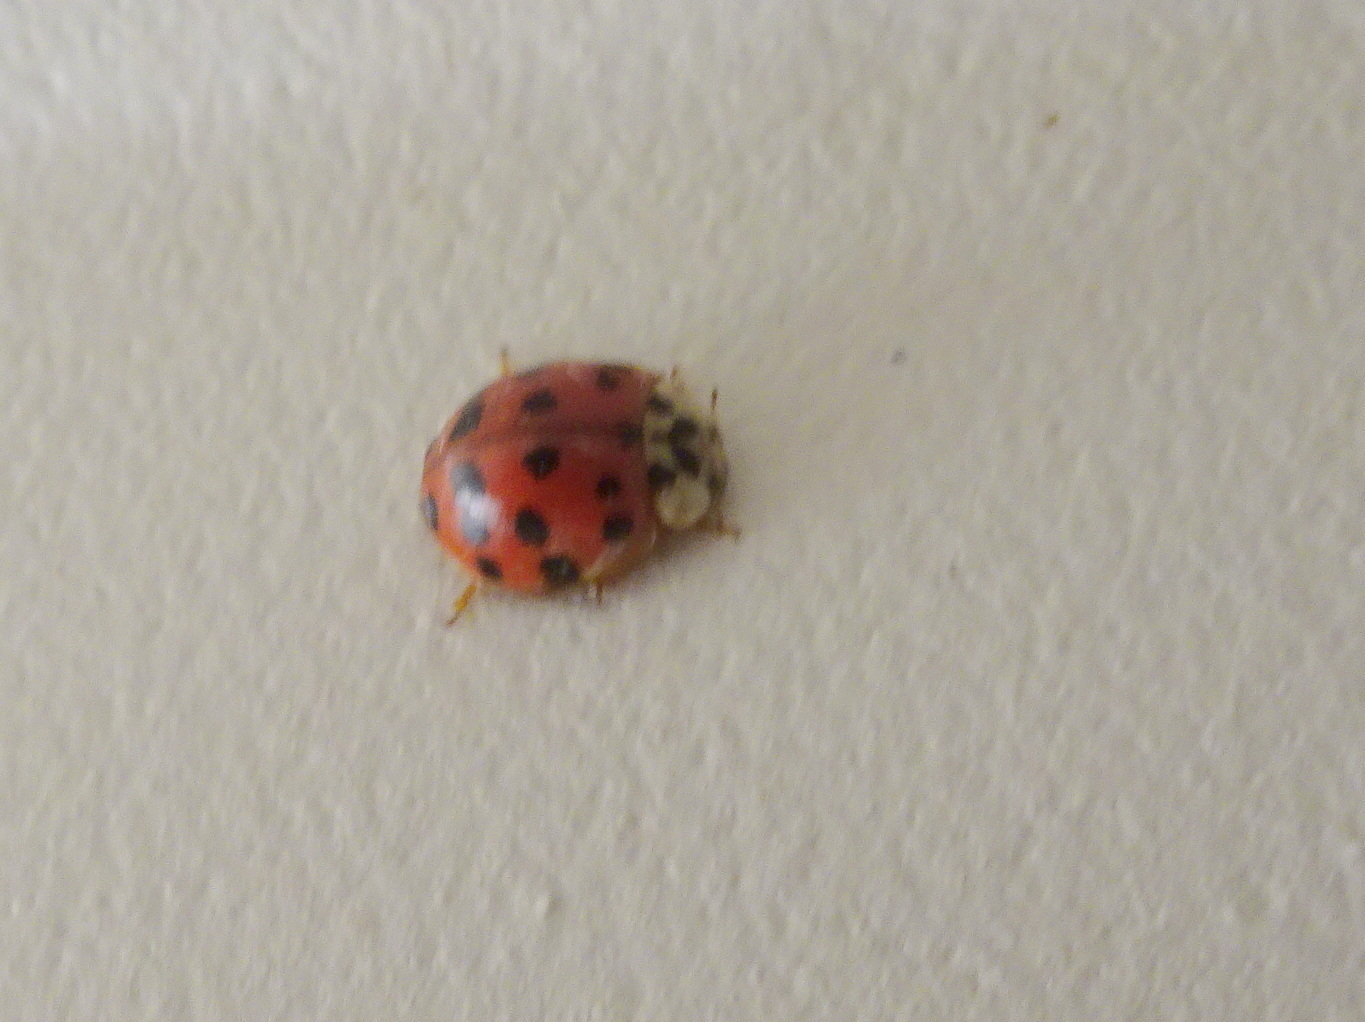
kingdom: Animalia
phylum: Arthropoda
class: Insecta
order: Coleoptera
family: Coccinellidae
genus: Harmonia
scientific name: Harmonia axyridis
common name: Harlequin ladybird
